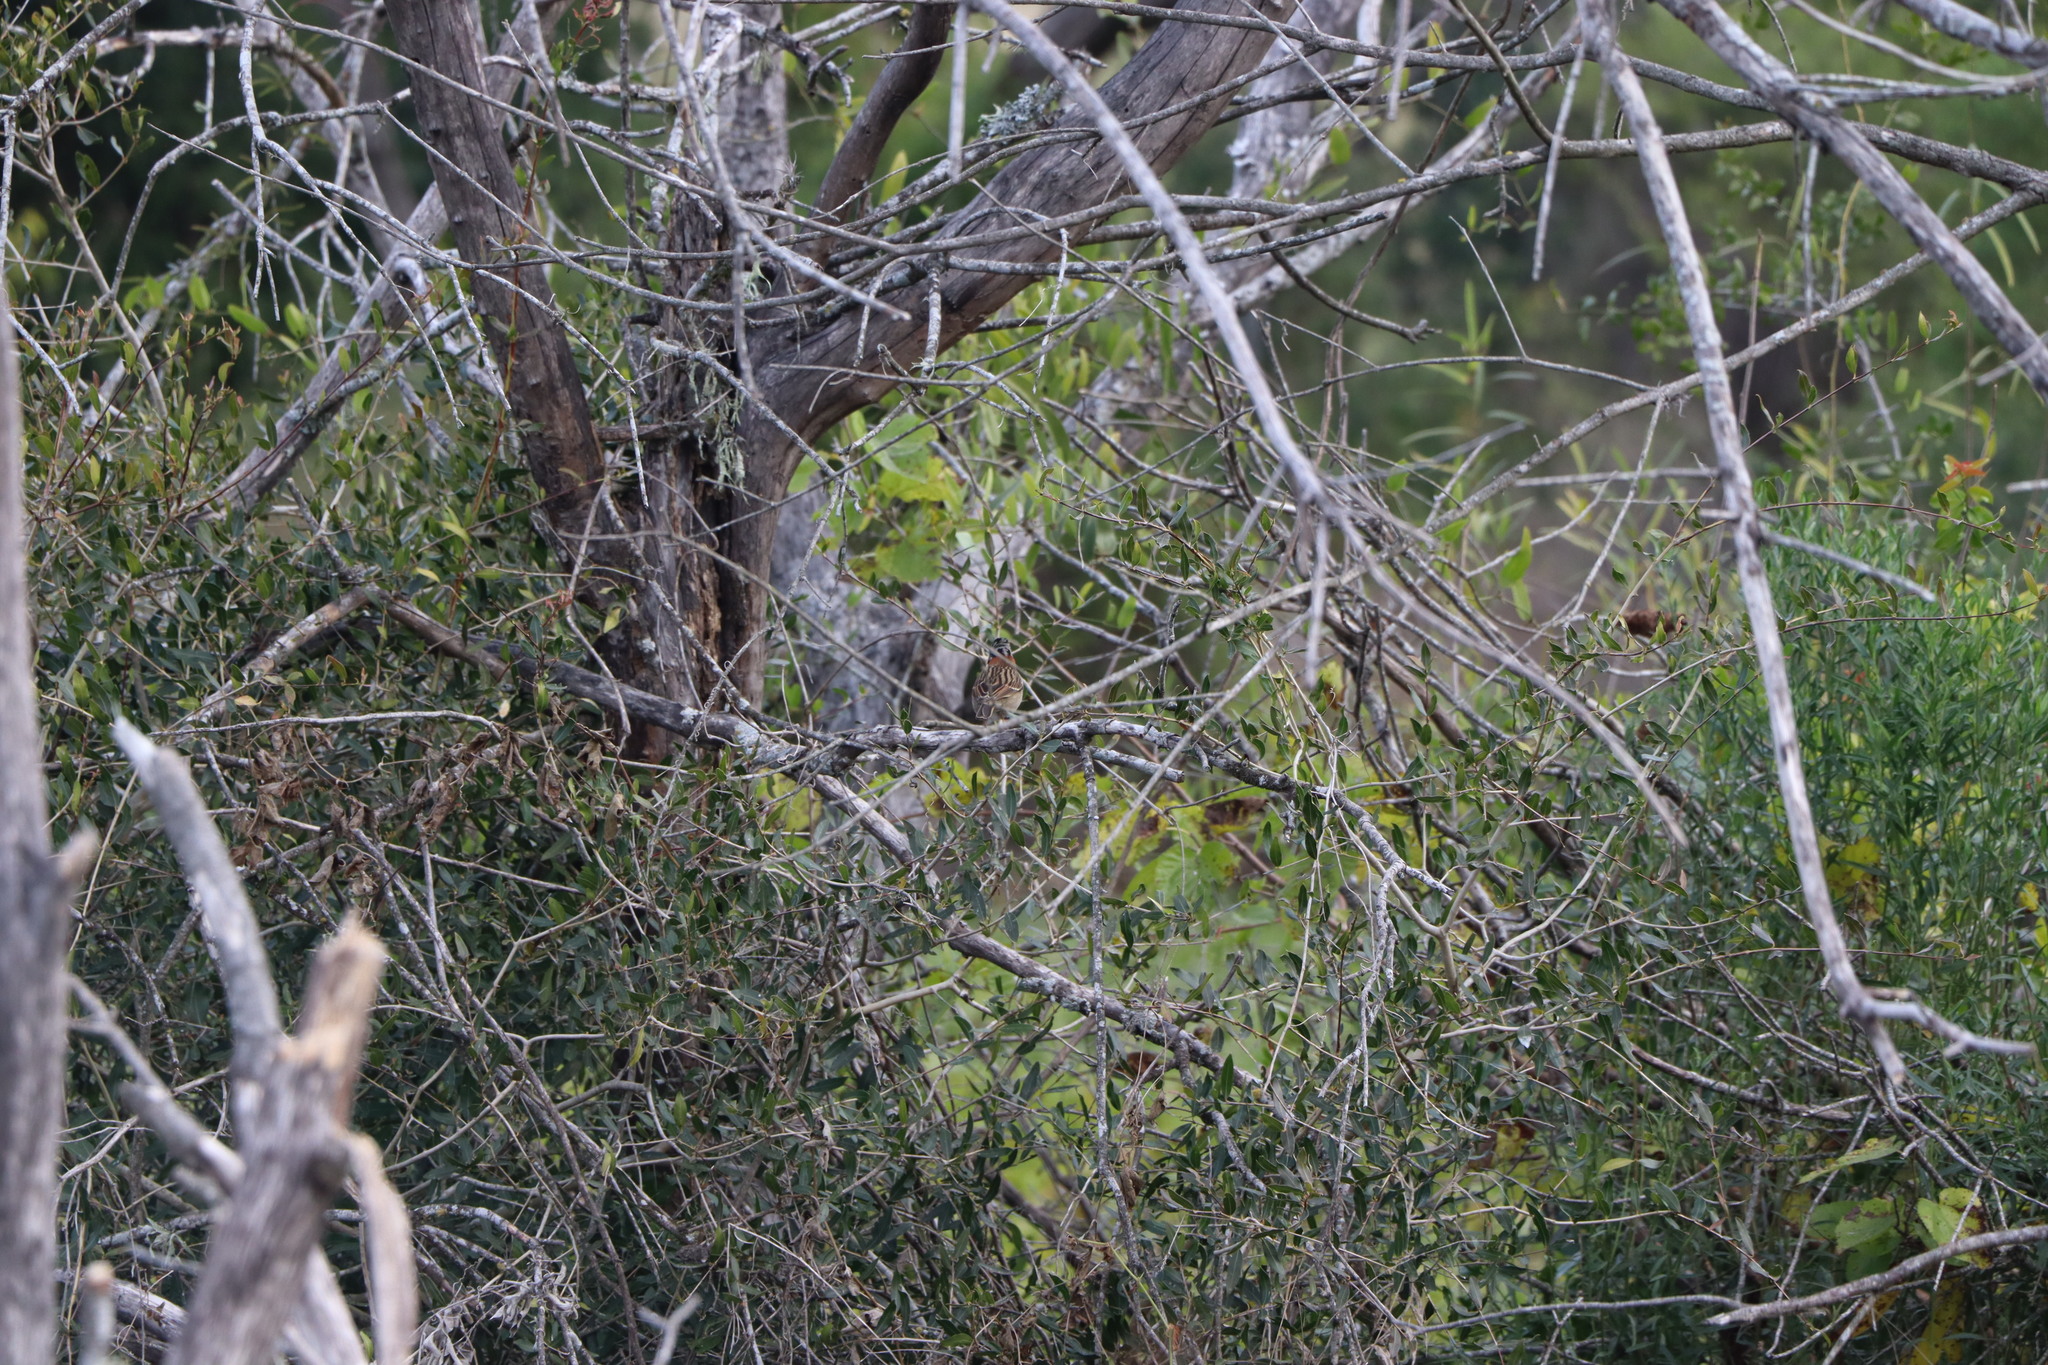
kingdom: Animalia
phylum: Chordata
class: Aves
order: Passeriformes
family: Passerellidae
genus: Zonotrichia
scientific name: Zonotrichia capensis
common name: Rufous-collared sparrow
